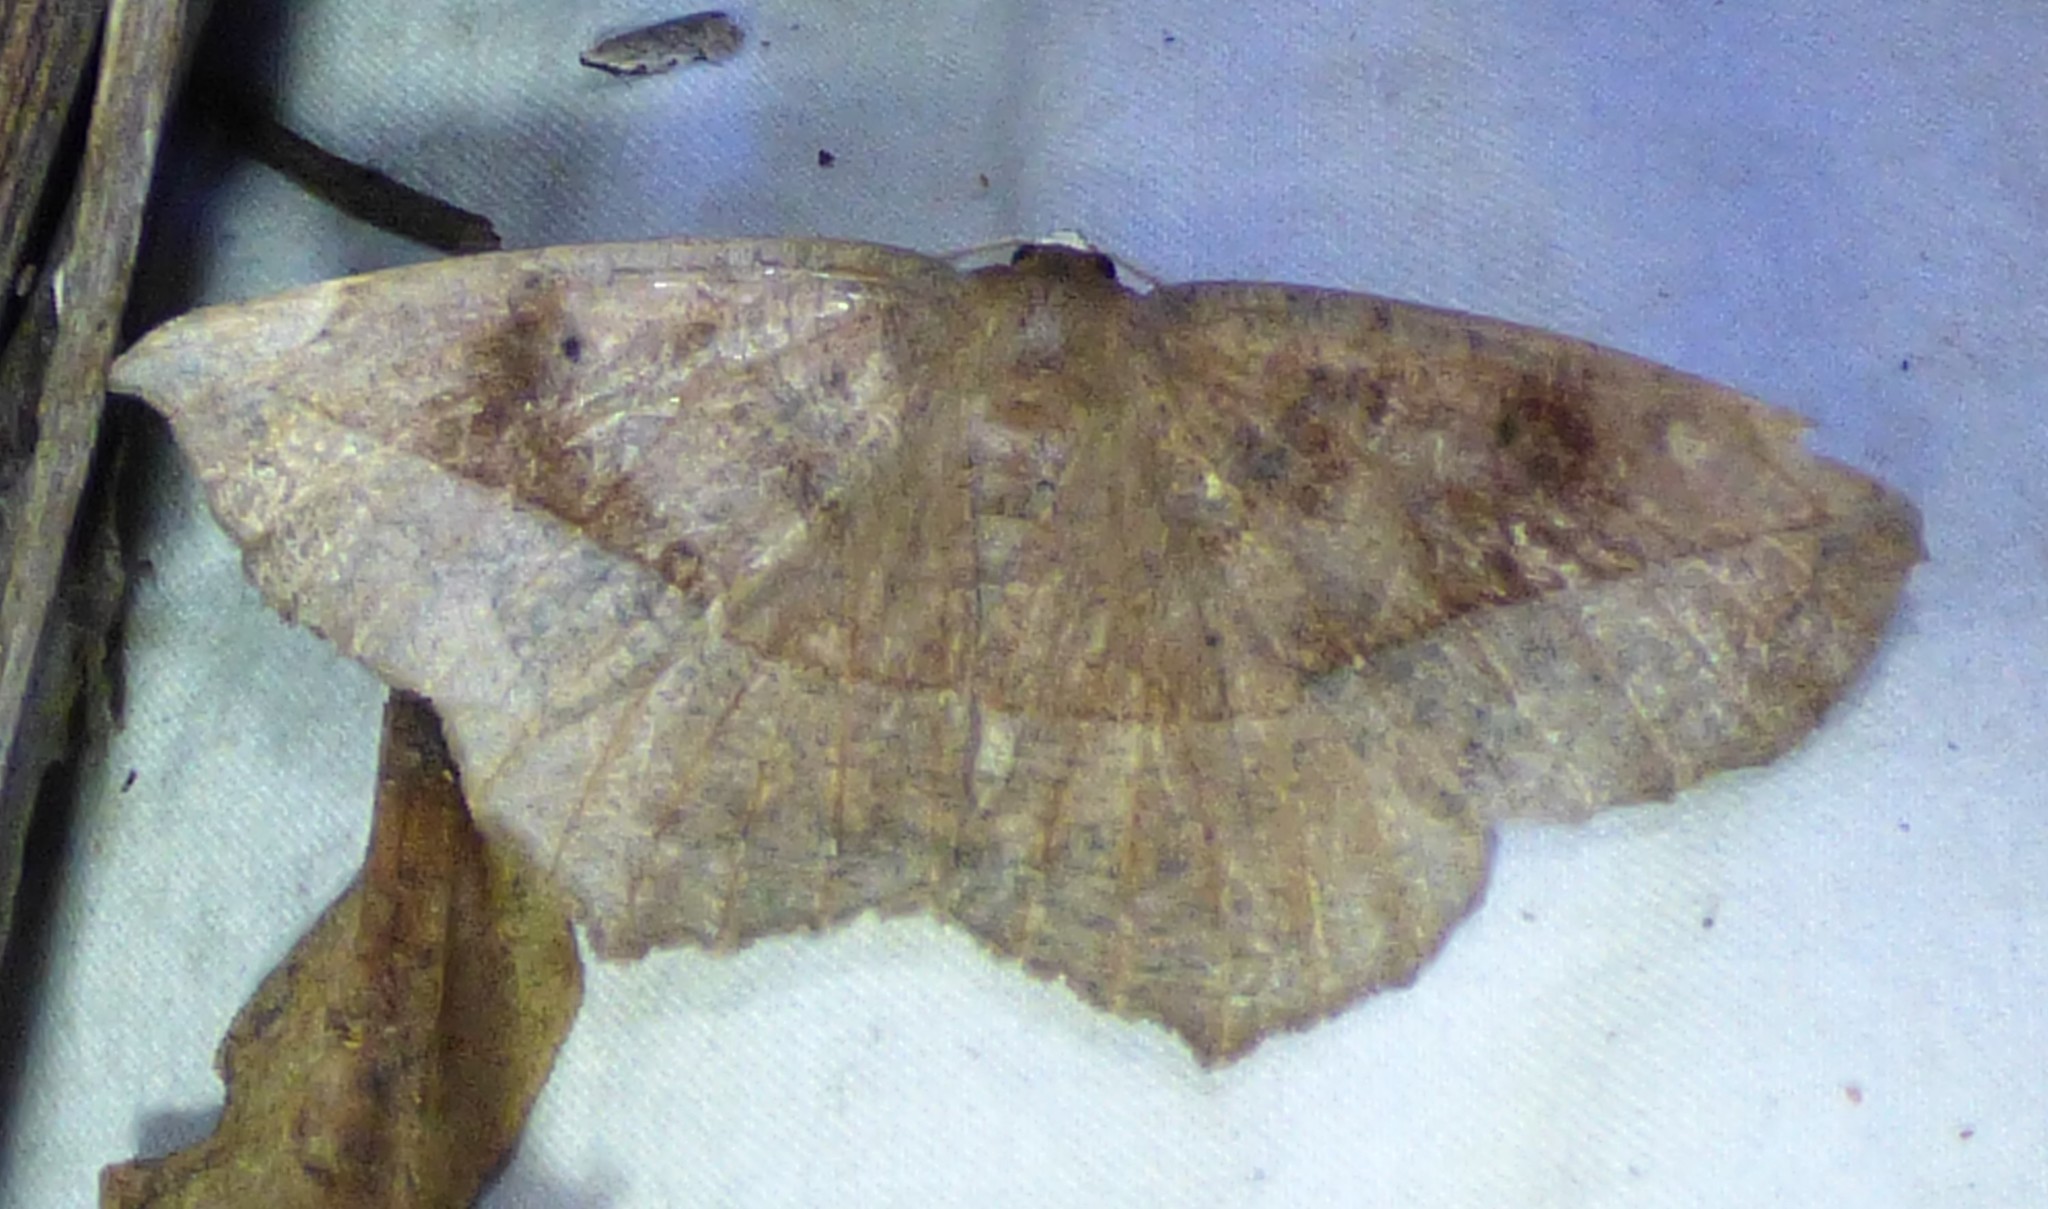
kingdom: Animalia
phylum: Arthropoda
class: Insecta
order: Lepidoptera
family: Geometridae
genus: Eutrapela
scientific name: Eutrapela clemataria
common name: Curved-toothed geometer
